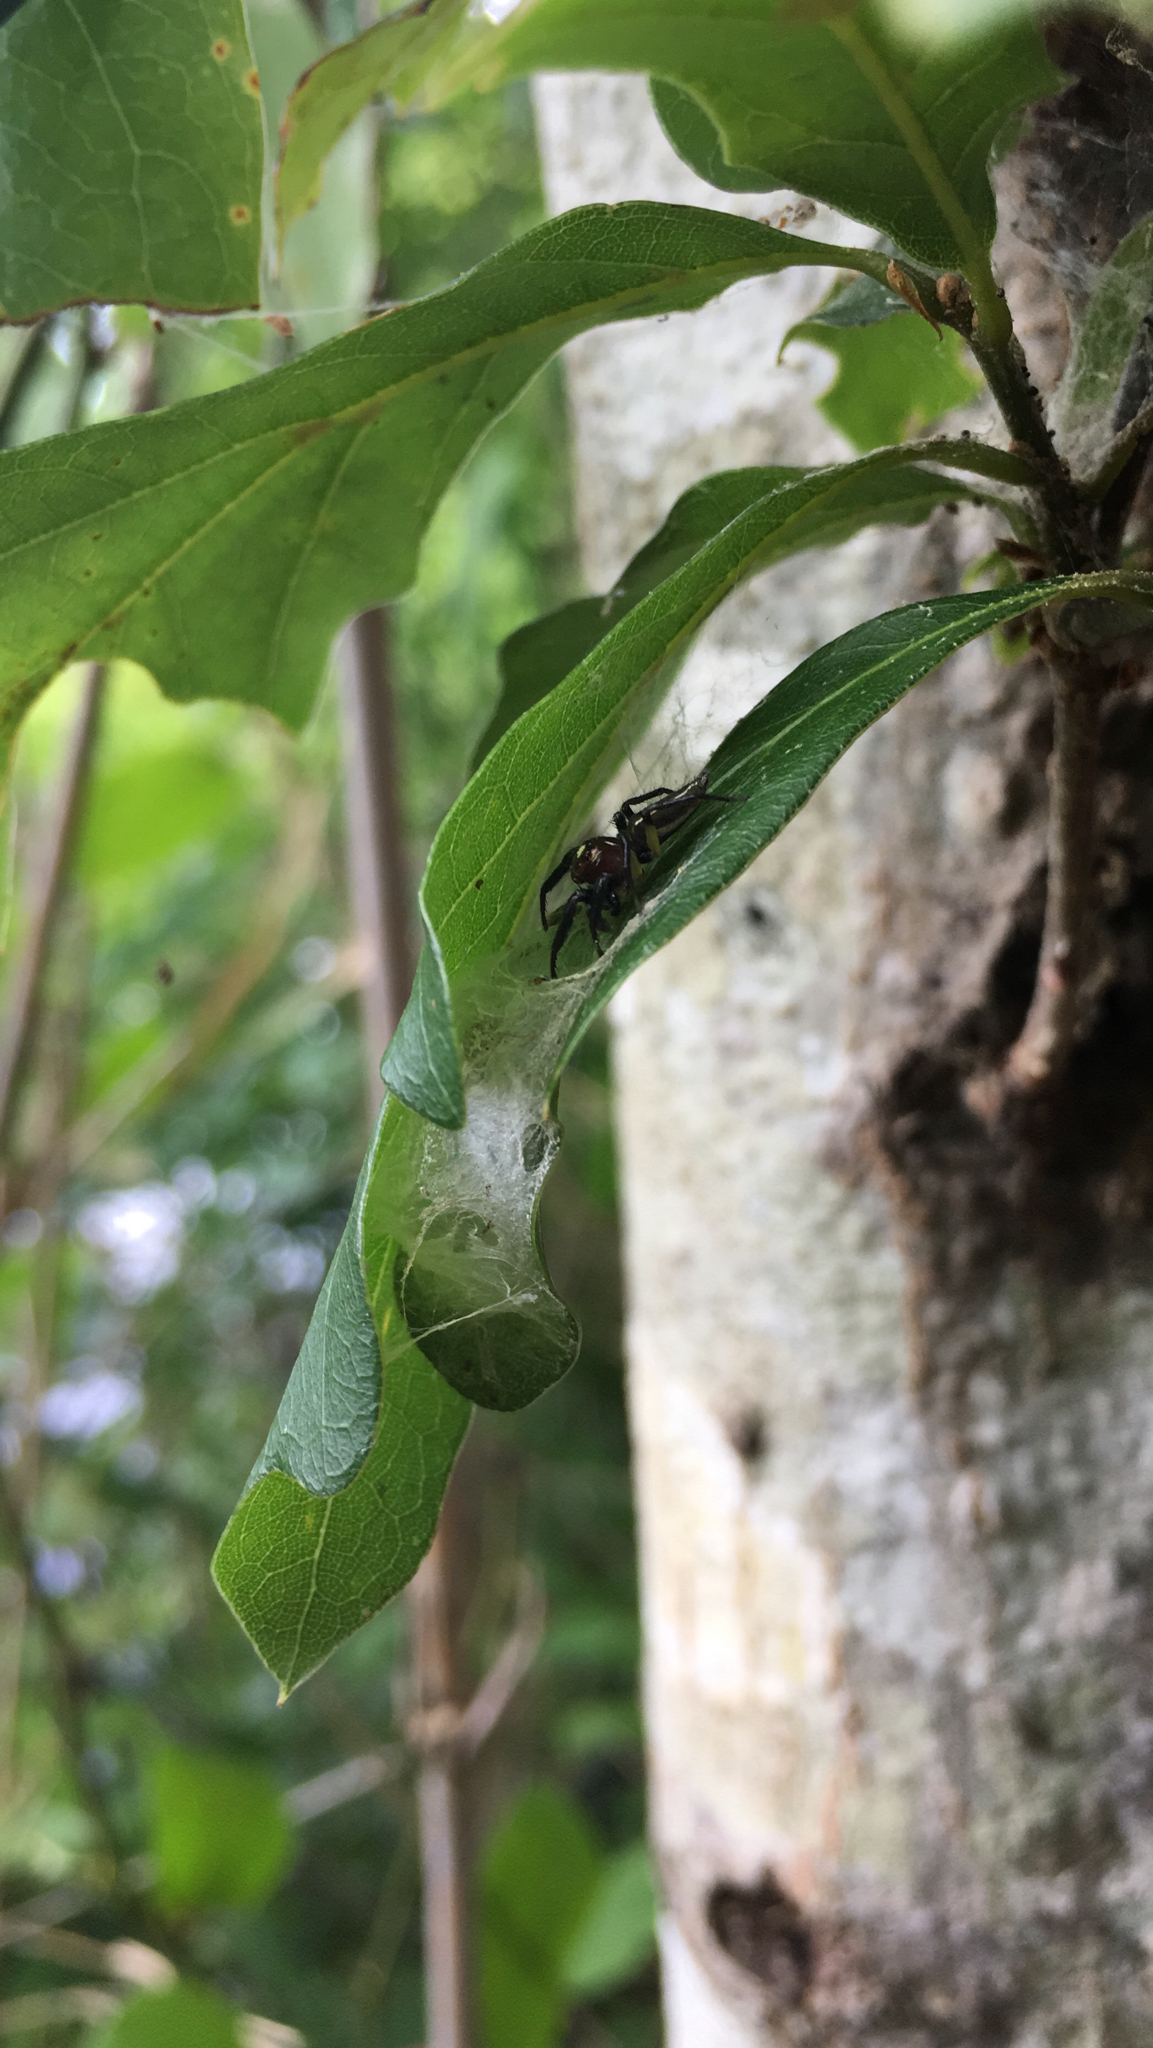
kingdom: Animalia
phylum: Arthropoda
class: Arachnida
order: Araneae
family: Salticidae
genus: Colonus
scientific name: Colonus sylvanus
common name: Jumping spiders
